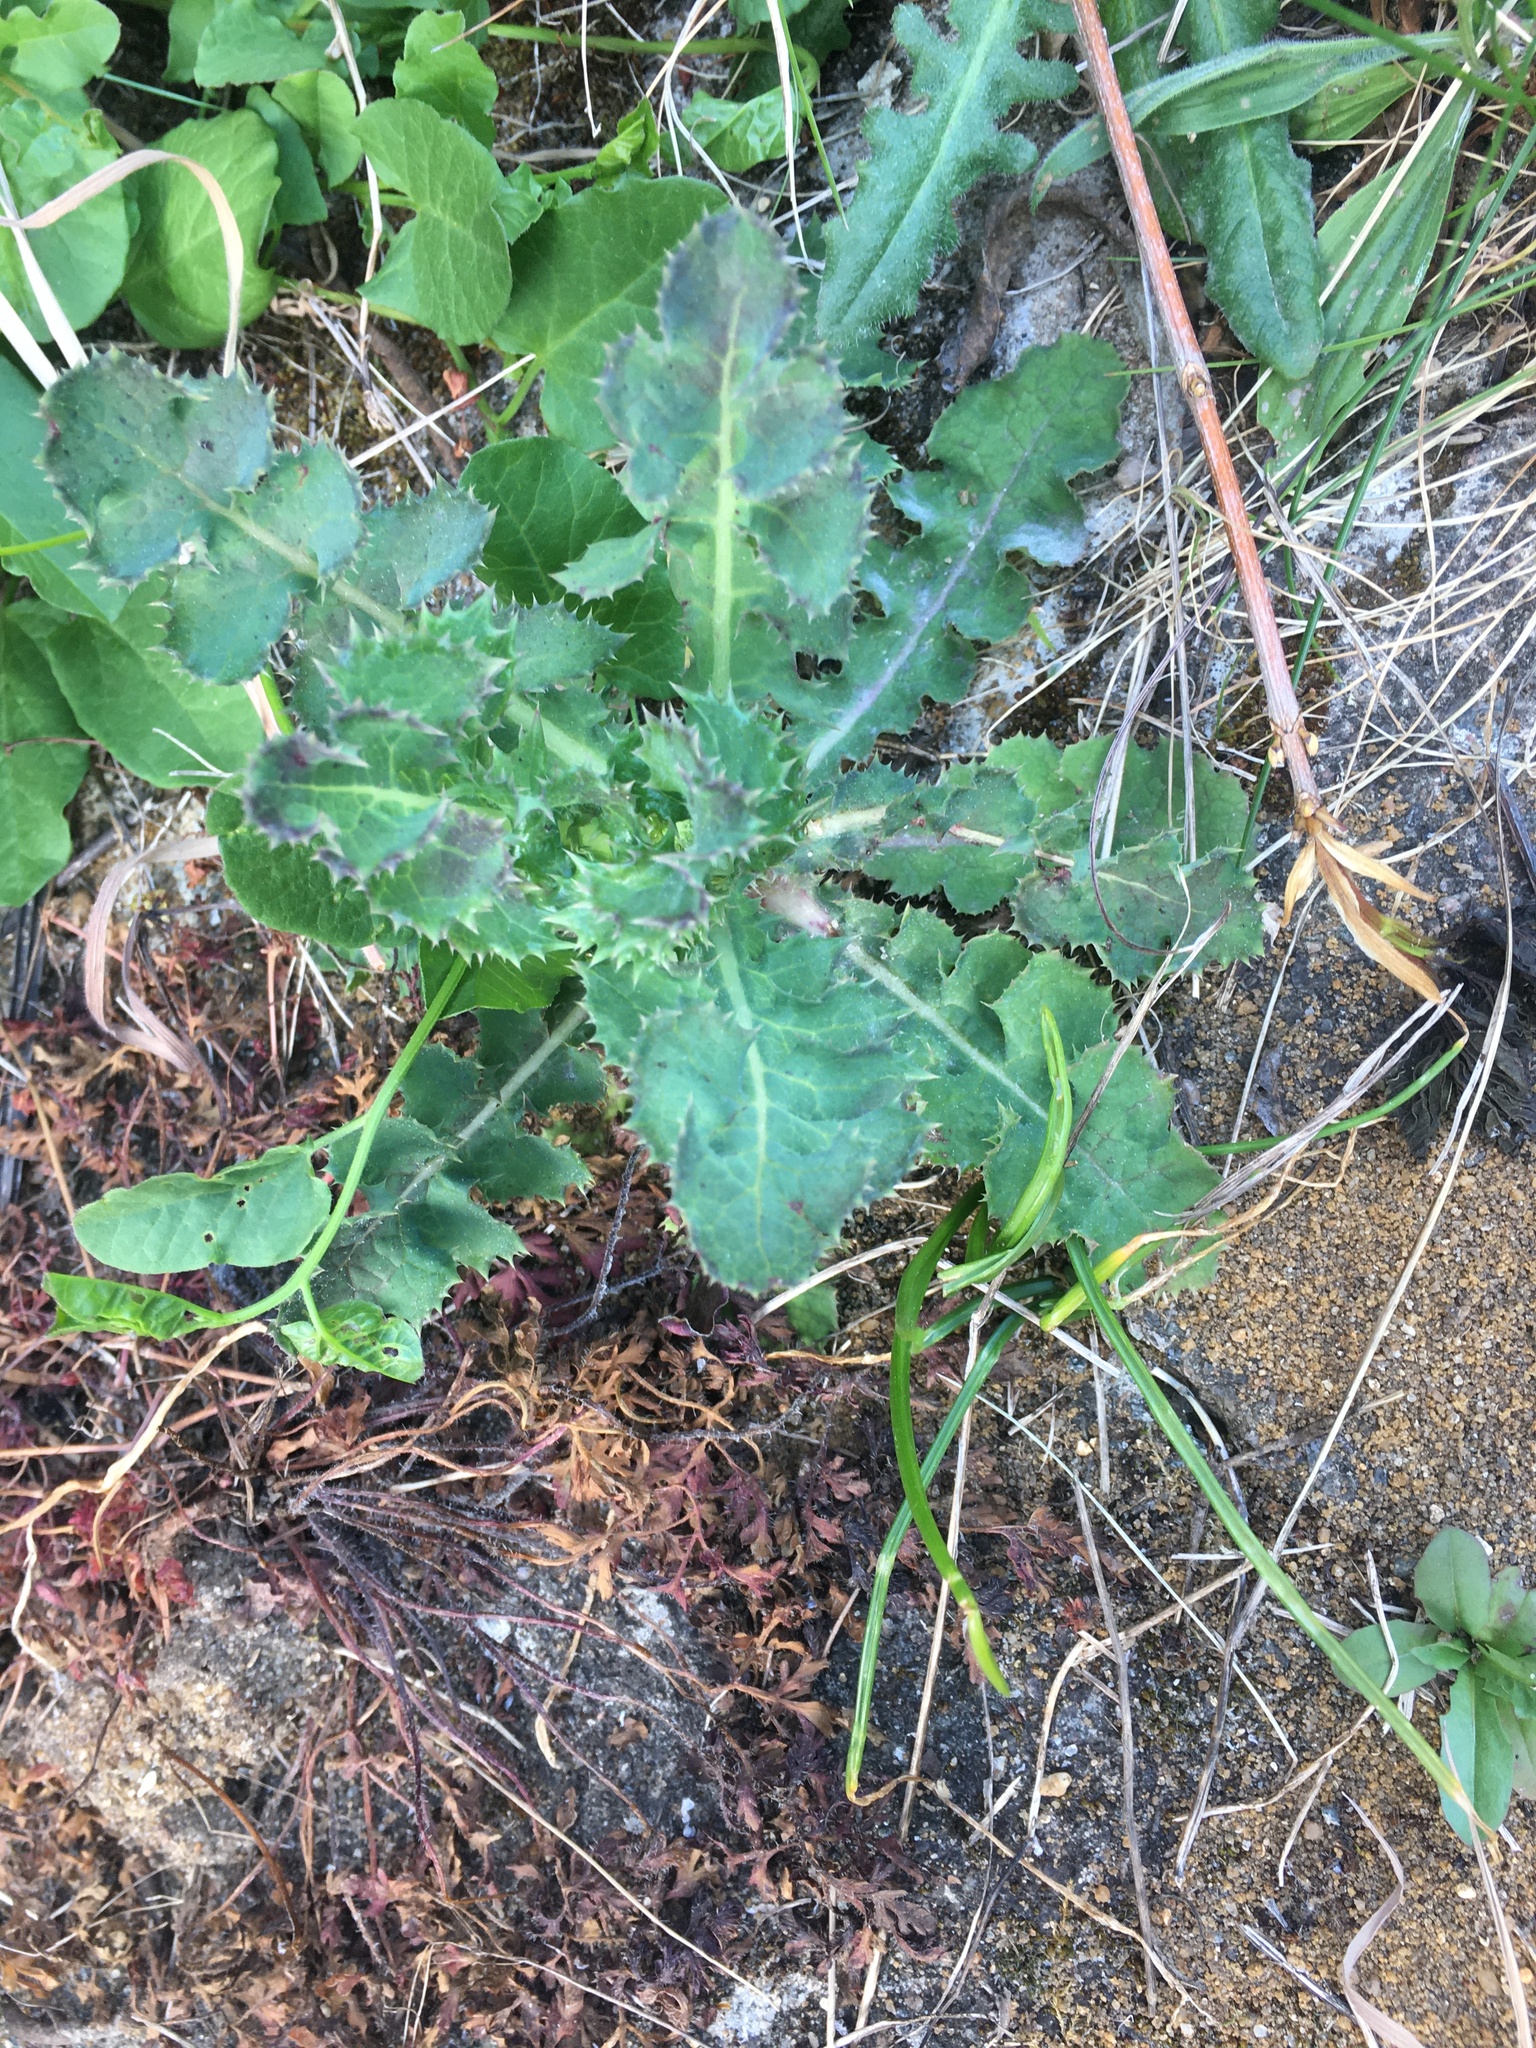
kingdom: Plantae
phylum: Tracheophyta
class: Magnoliopsida
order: Asterales
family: Asteraceae
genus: Sonchus
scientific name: Sonchus asper
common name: Prickly sow-thistle
